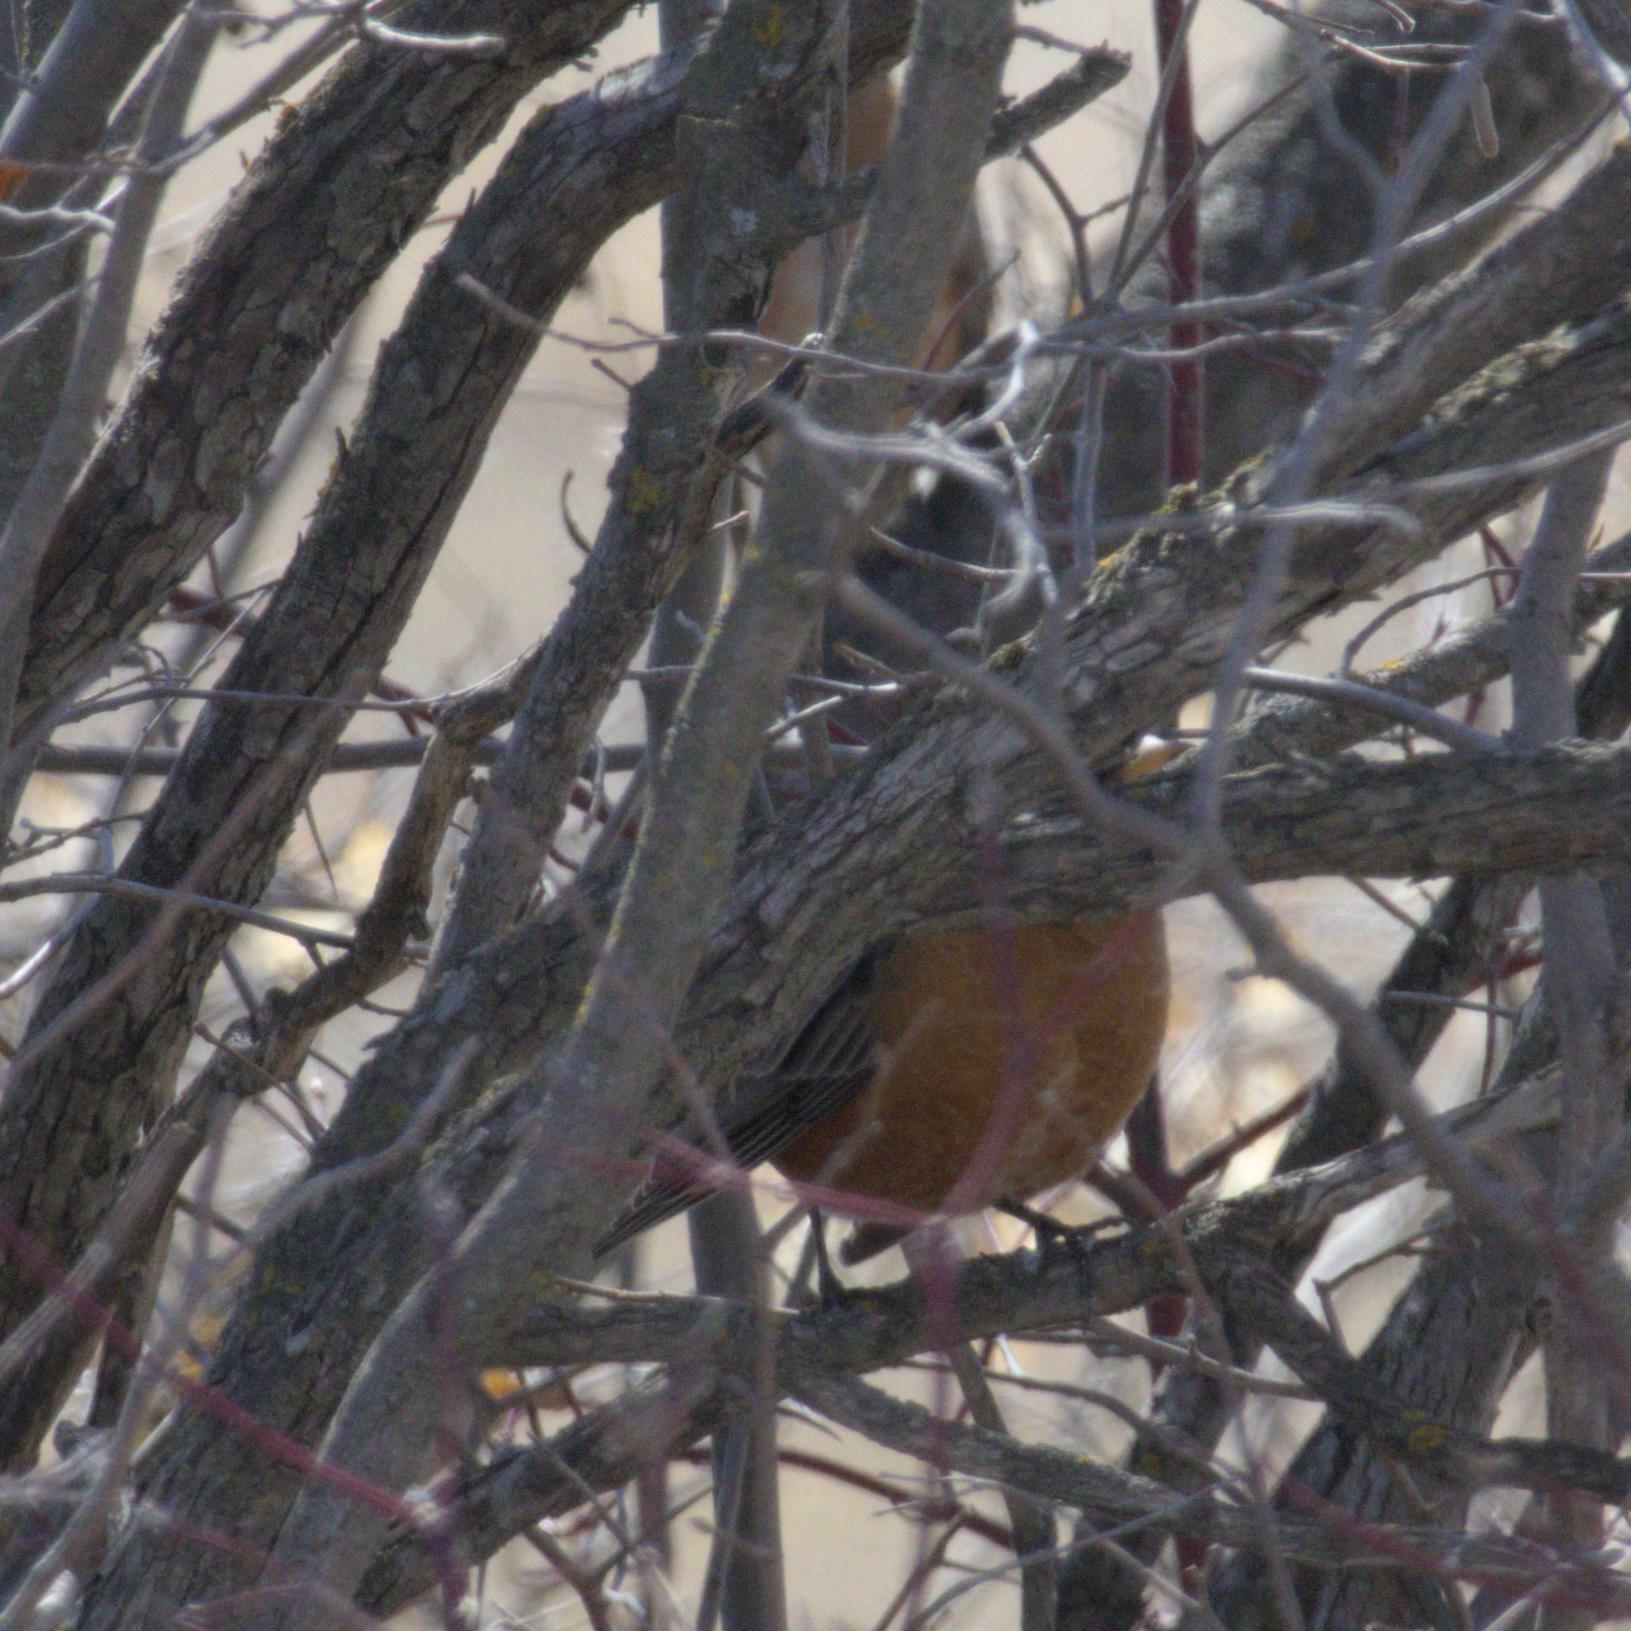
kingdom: Animalia
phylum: Chordata
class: Aves
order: Passeriformes
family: Turdidae
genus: Turdus
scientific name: Turdus migratorius
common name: American robin
